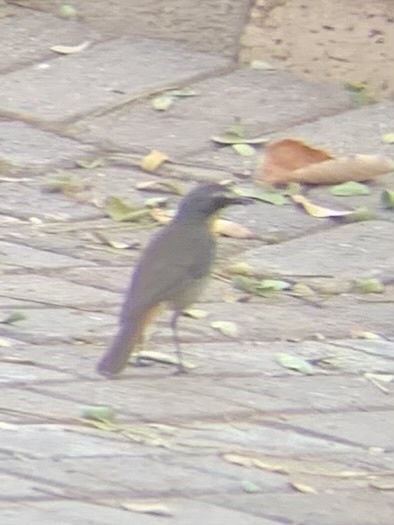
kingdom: Animalia
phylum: Chordata
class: Aves
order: Passeriformes
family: Muscicapidae
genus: Cossypha
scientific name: Cossypha caffra
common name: Cape robin-chat
